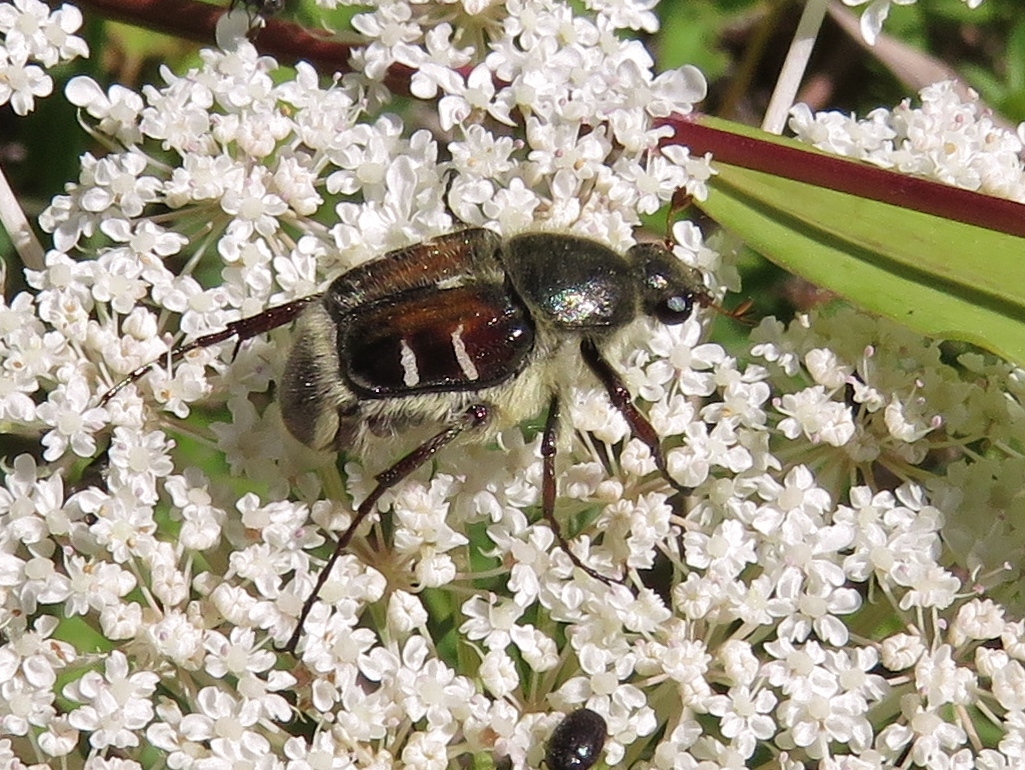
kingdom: Animalia
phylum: Arthropoda
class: Insecta
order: Coleoptera
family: Scarabaeidae
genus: Trichiotinus
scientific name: Trichiotinus piger
